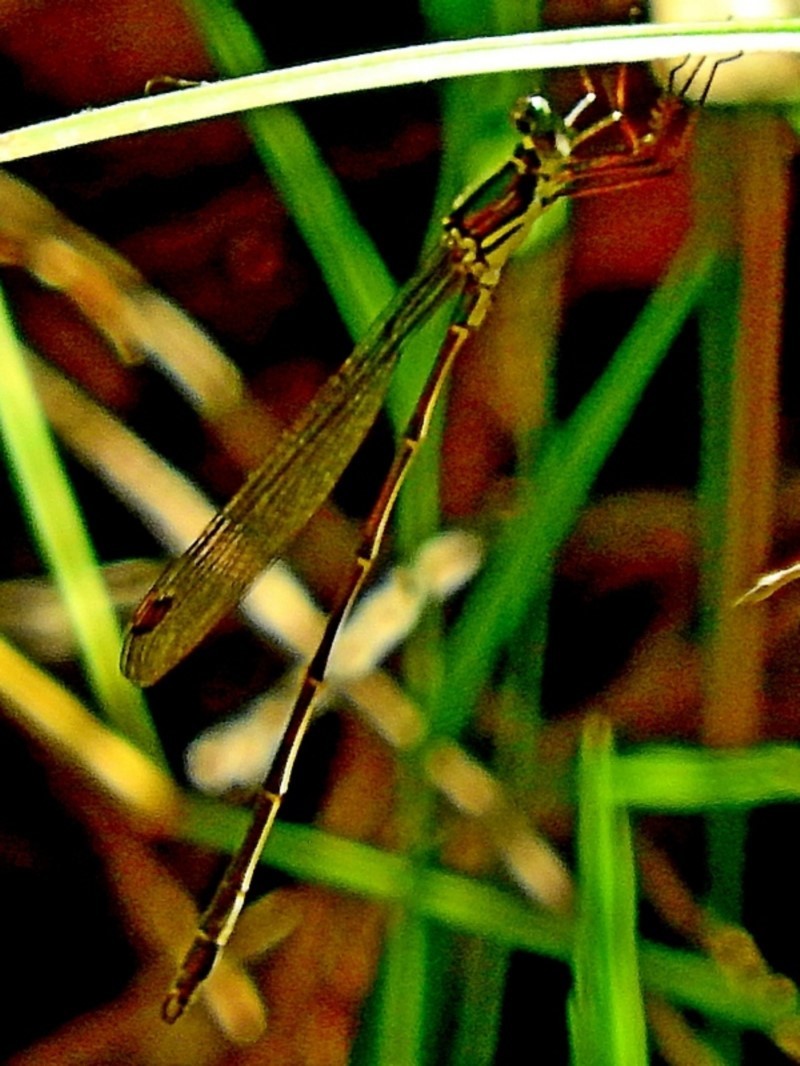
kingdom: Animalia
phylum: Arthropoda
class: Insecta
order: Odonata
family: Synlestidae
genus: Synlestes
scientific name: Synlestes weyersii
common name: Bronze needle
